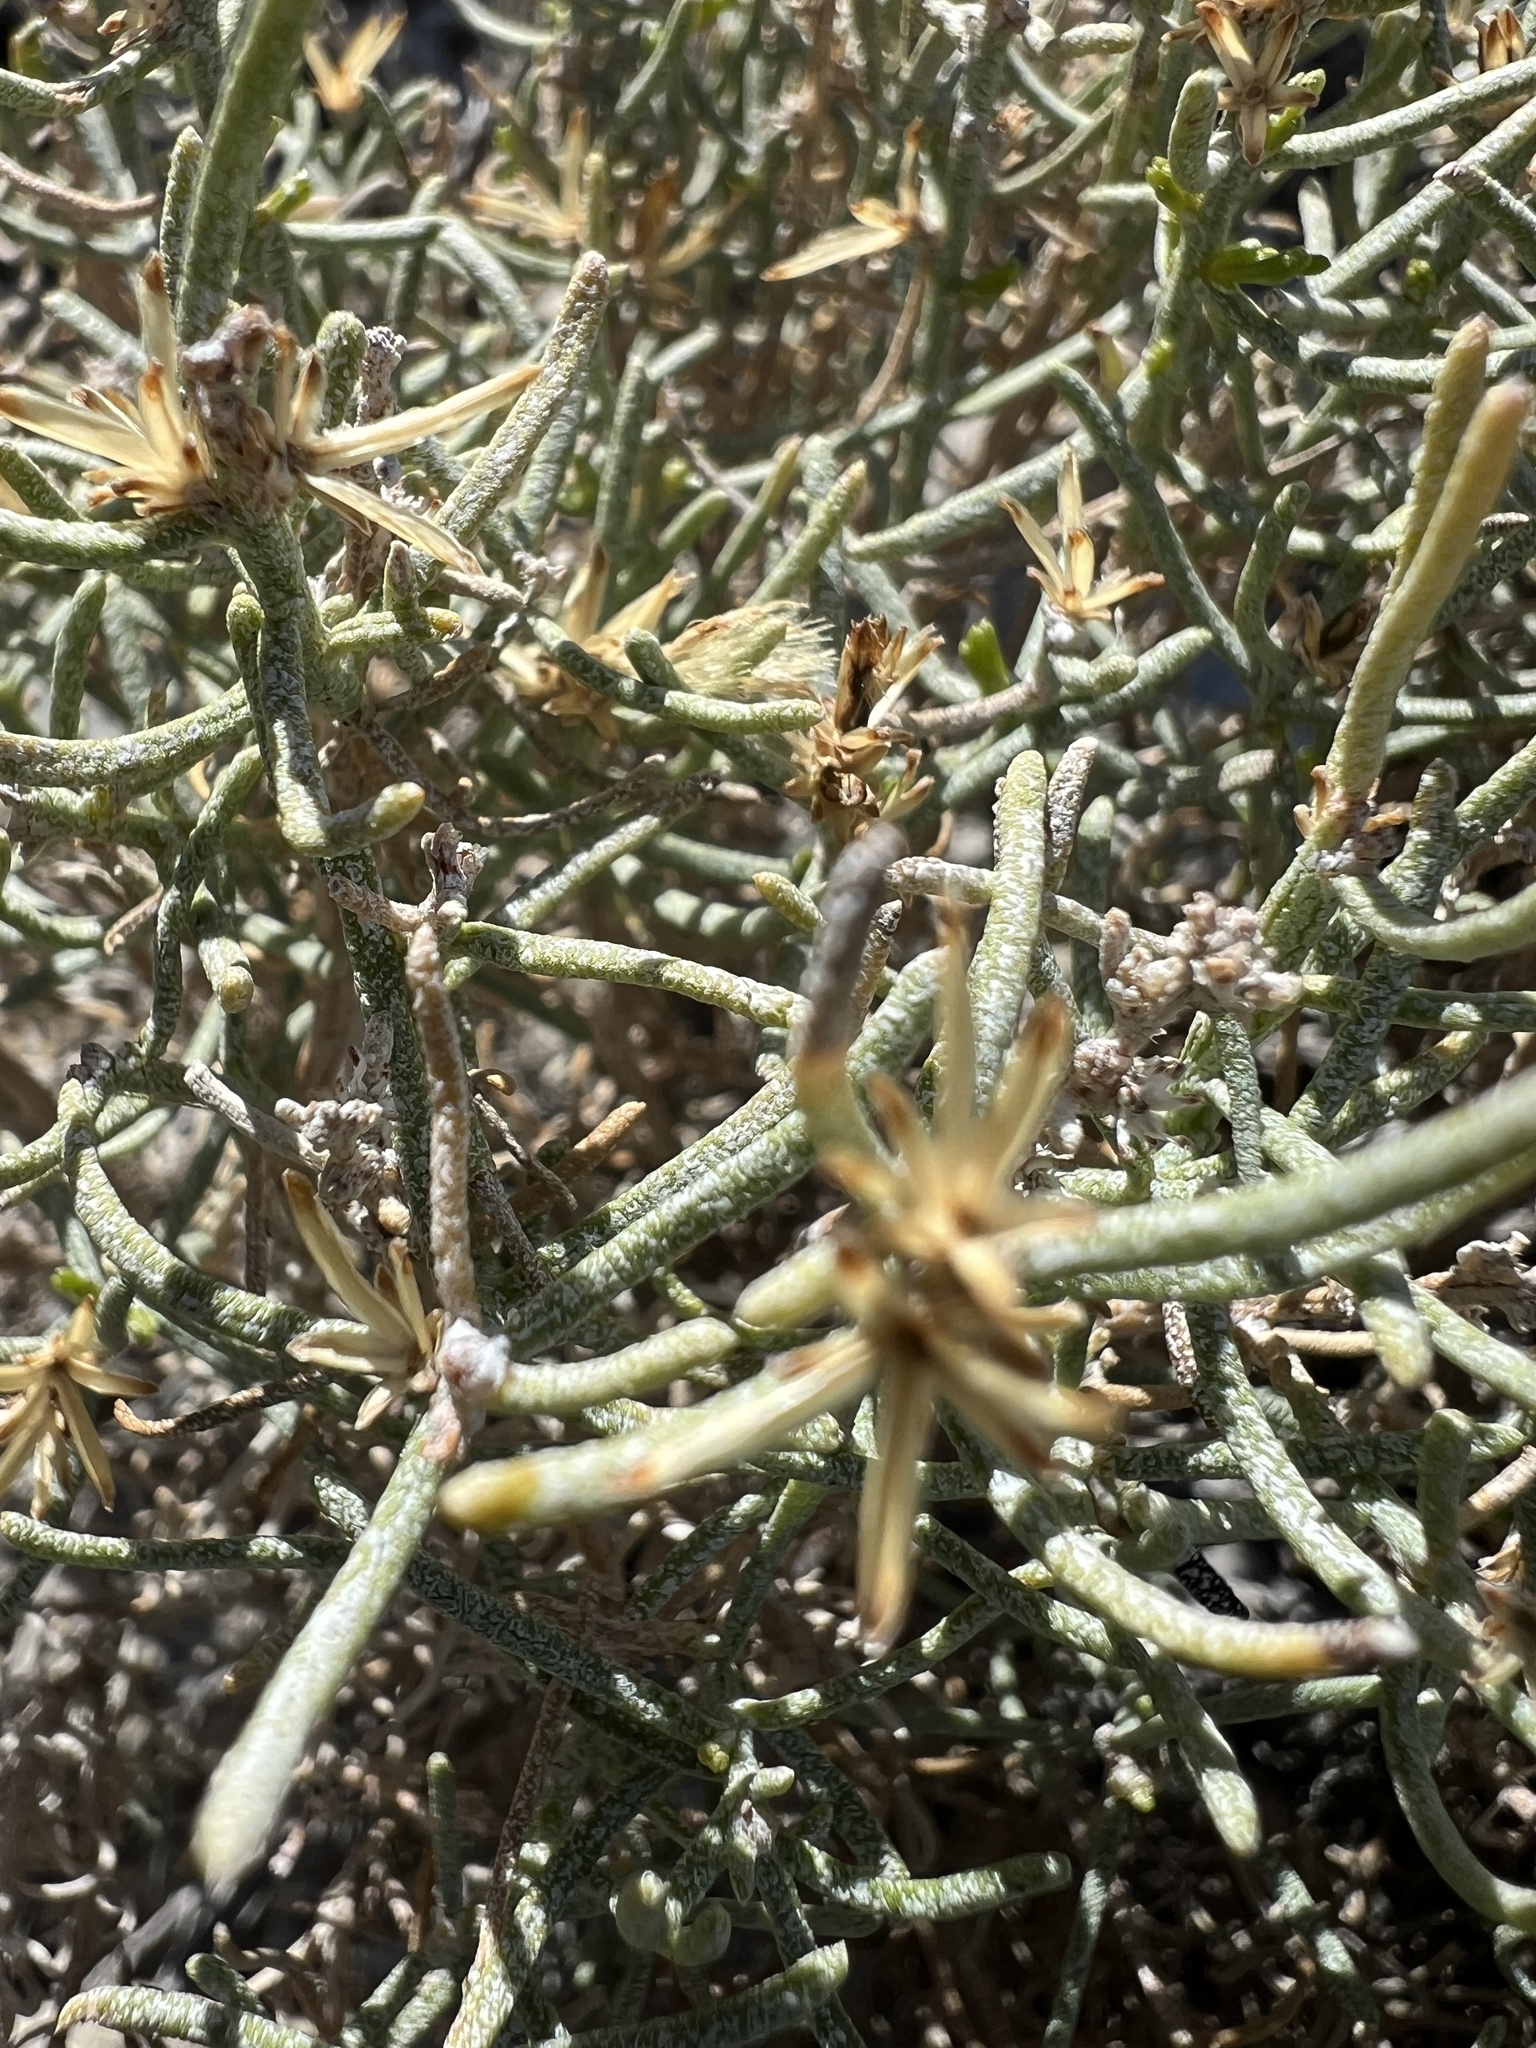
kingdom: Plantae
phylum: Tracheophyta
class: Magnoliopsida
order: Asterales
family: Asteraceae
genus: Ericameria
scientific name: Ericameria teretifolia
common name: Round-leaf rabbitbrush
